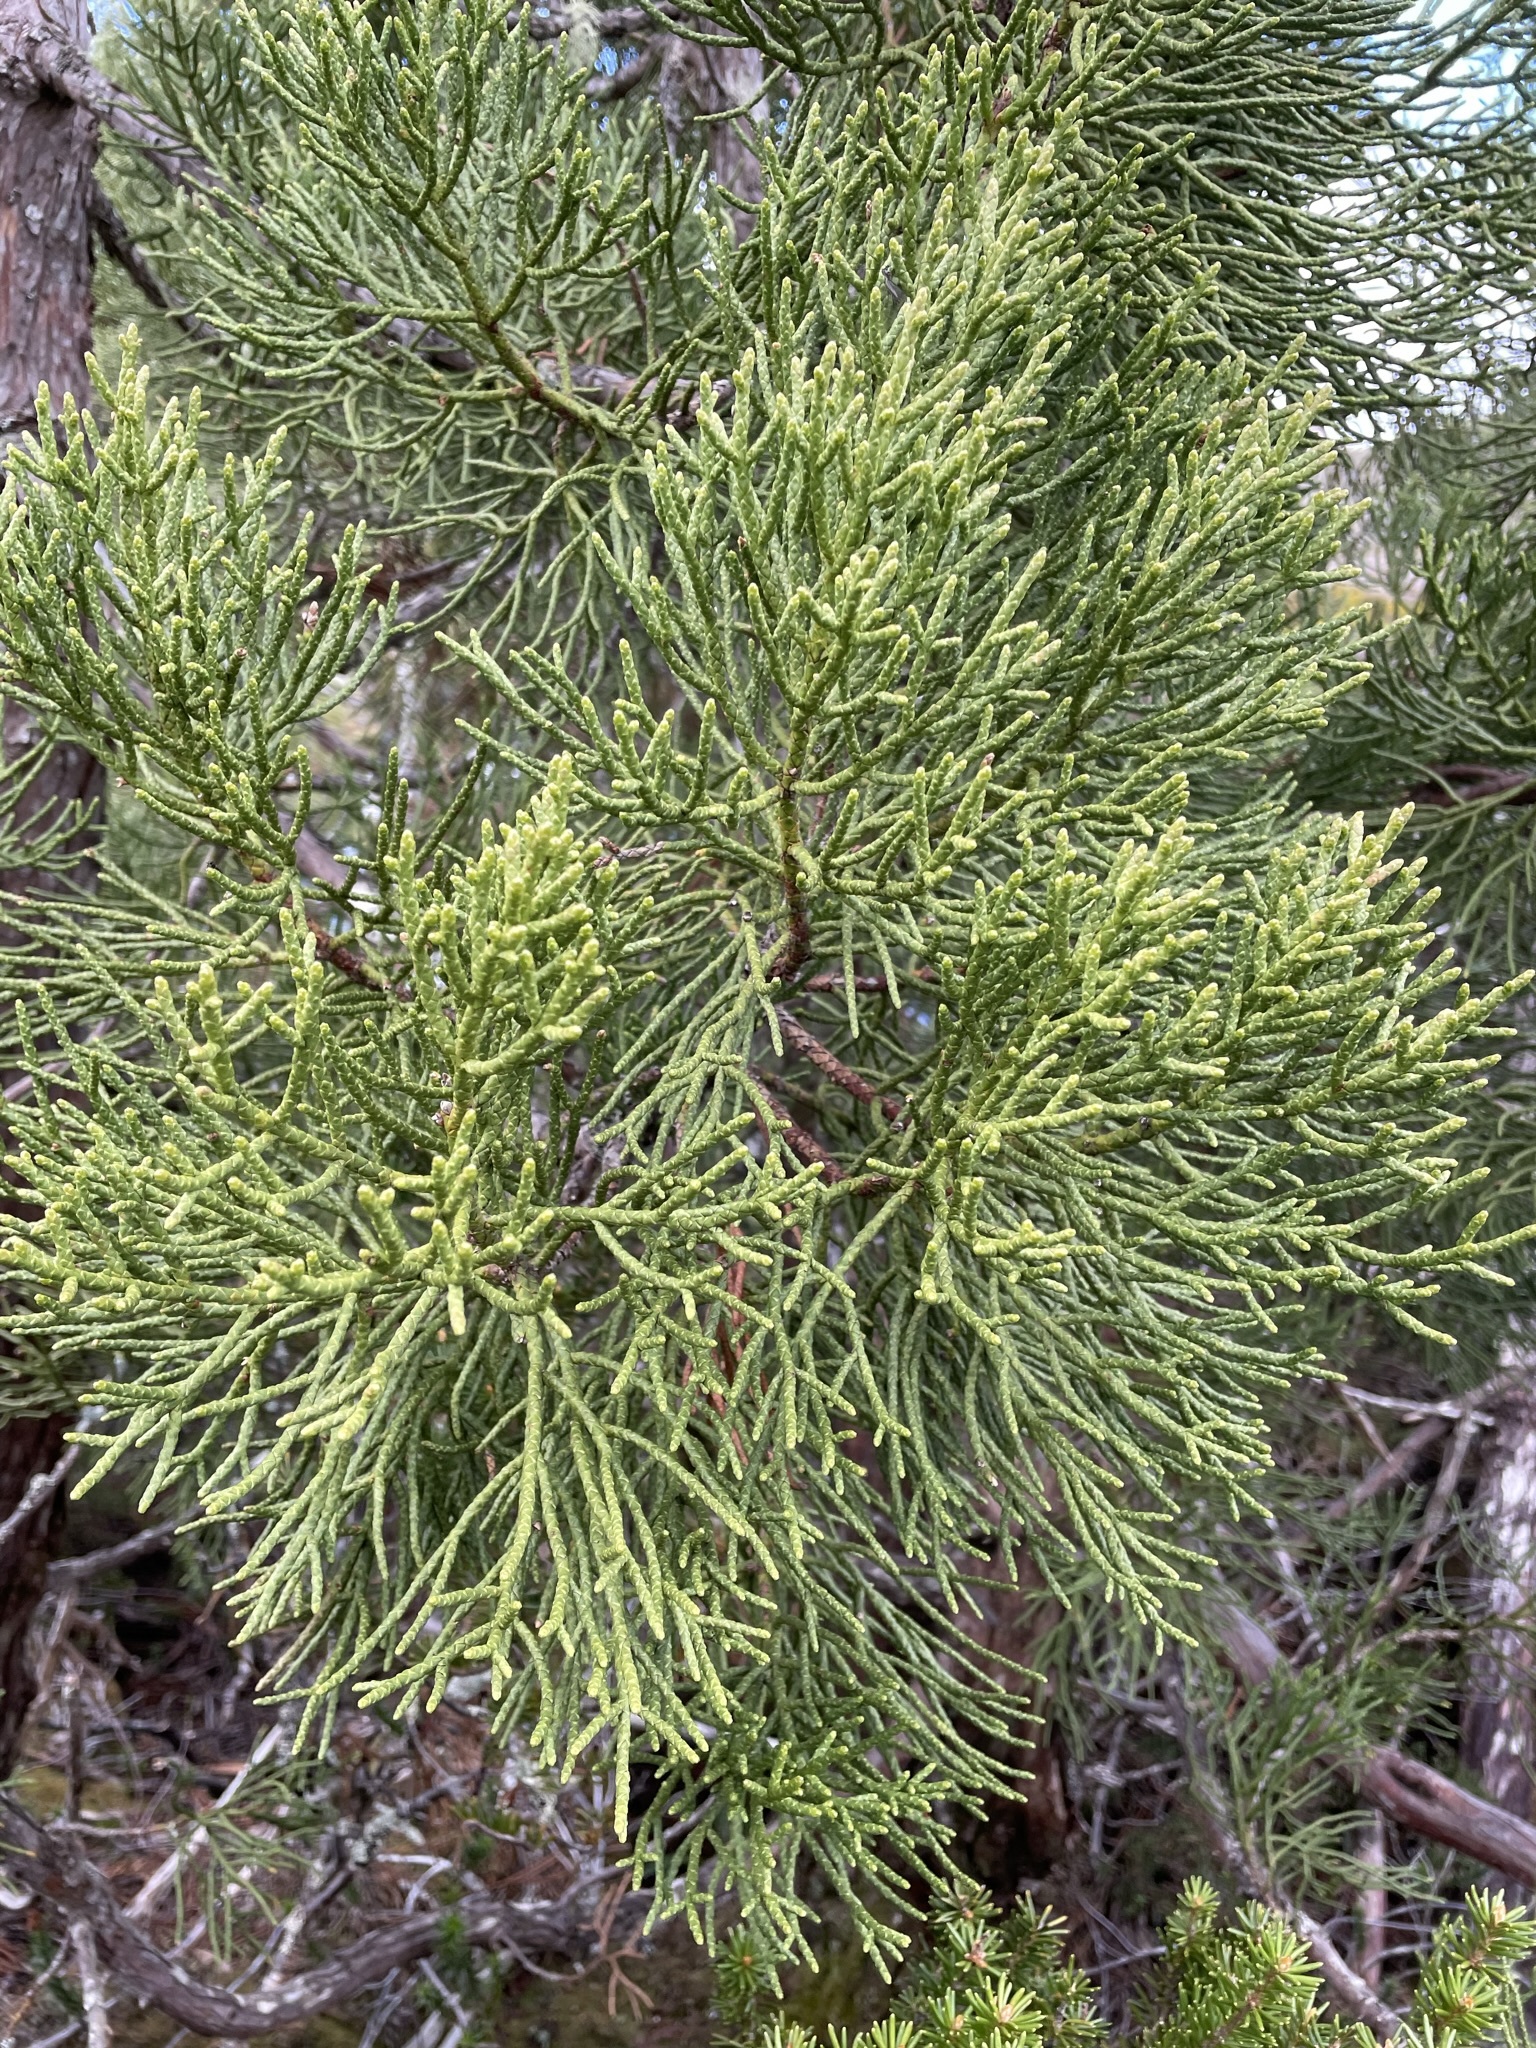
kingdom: Plantae
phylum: Tracheophyta
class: Pinopsida
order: Pinales
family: Cupressaceae
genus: Athrotaxis
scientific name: Athrotaxis cupressoides
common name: Tasmanian pencil pine
